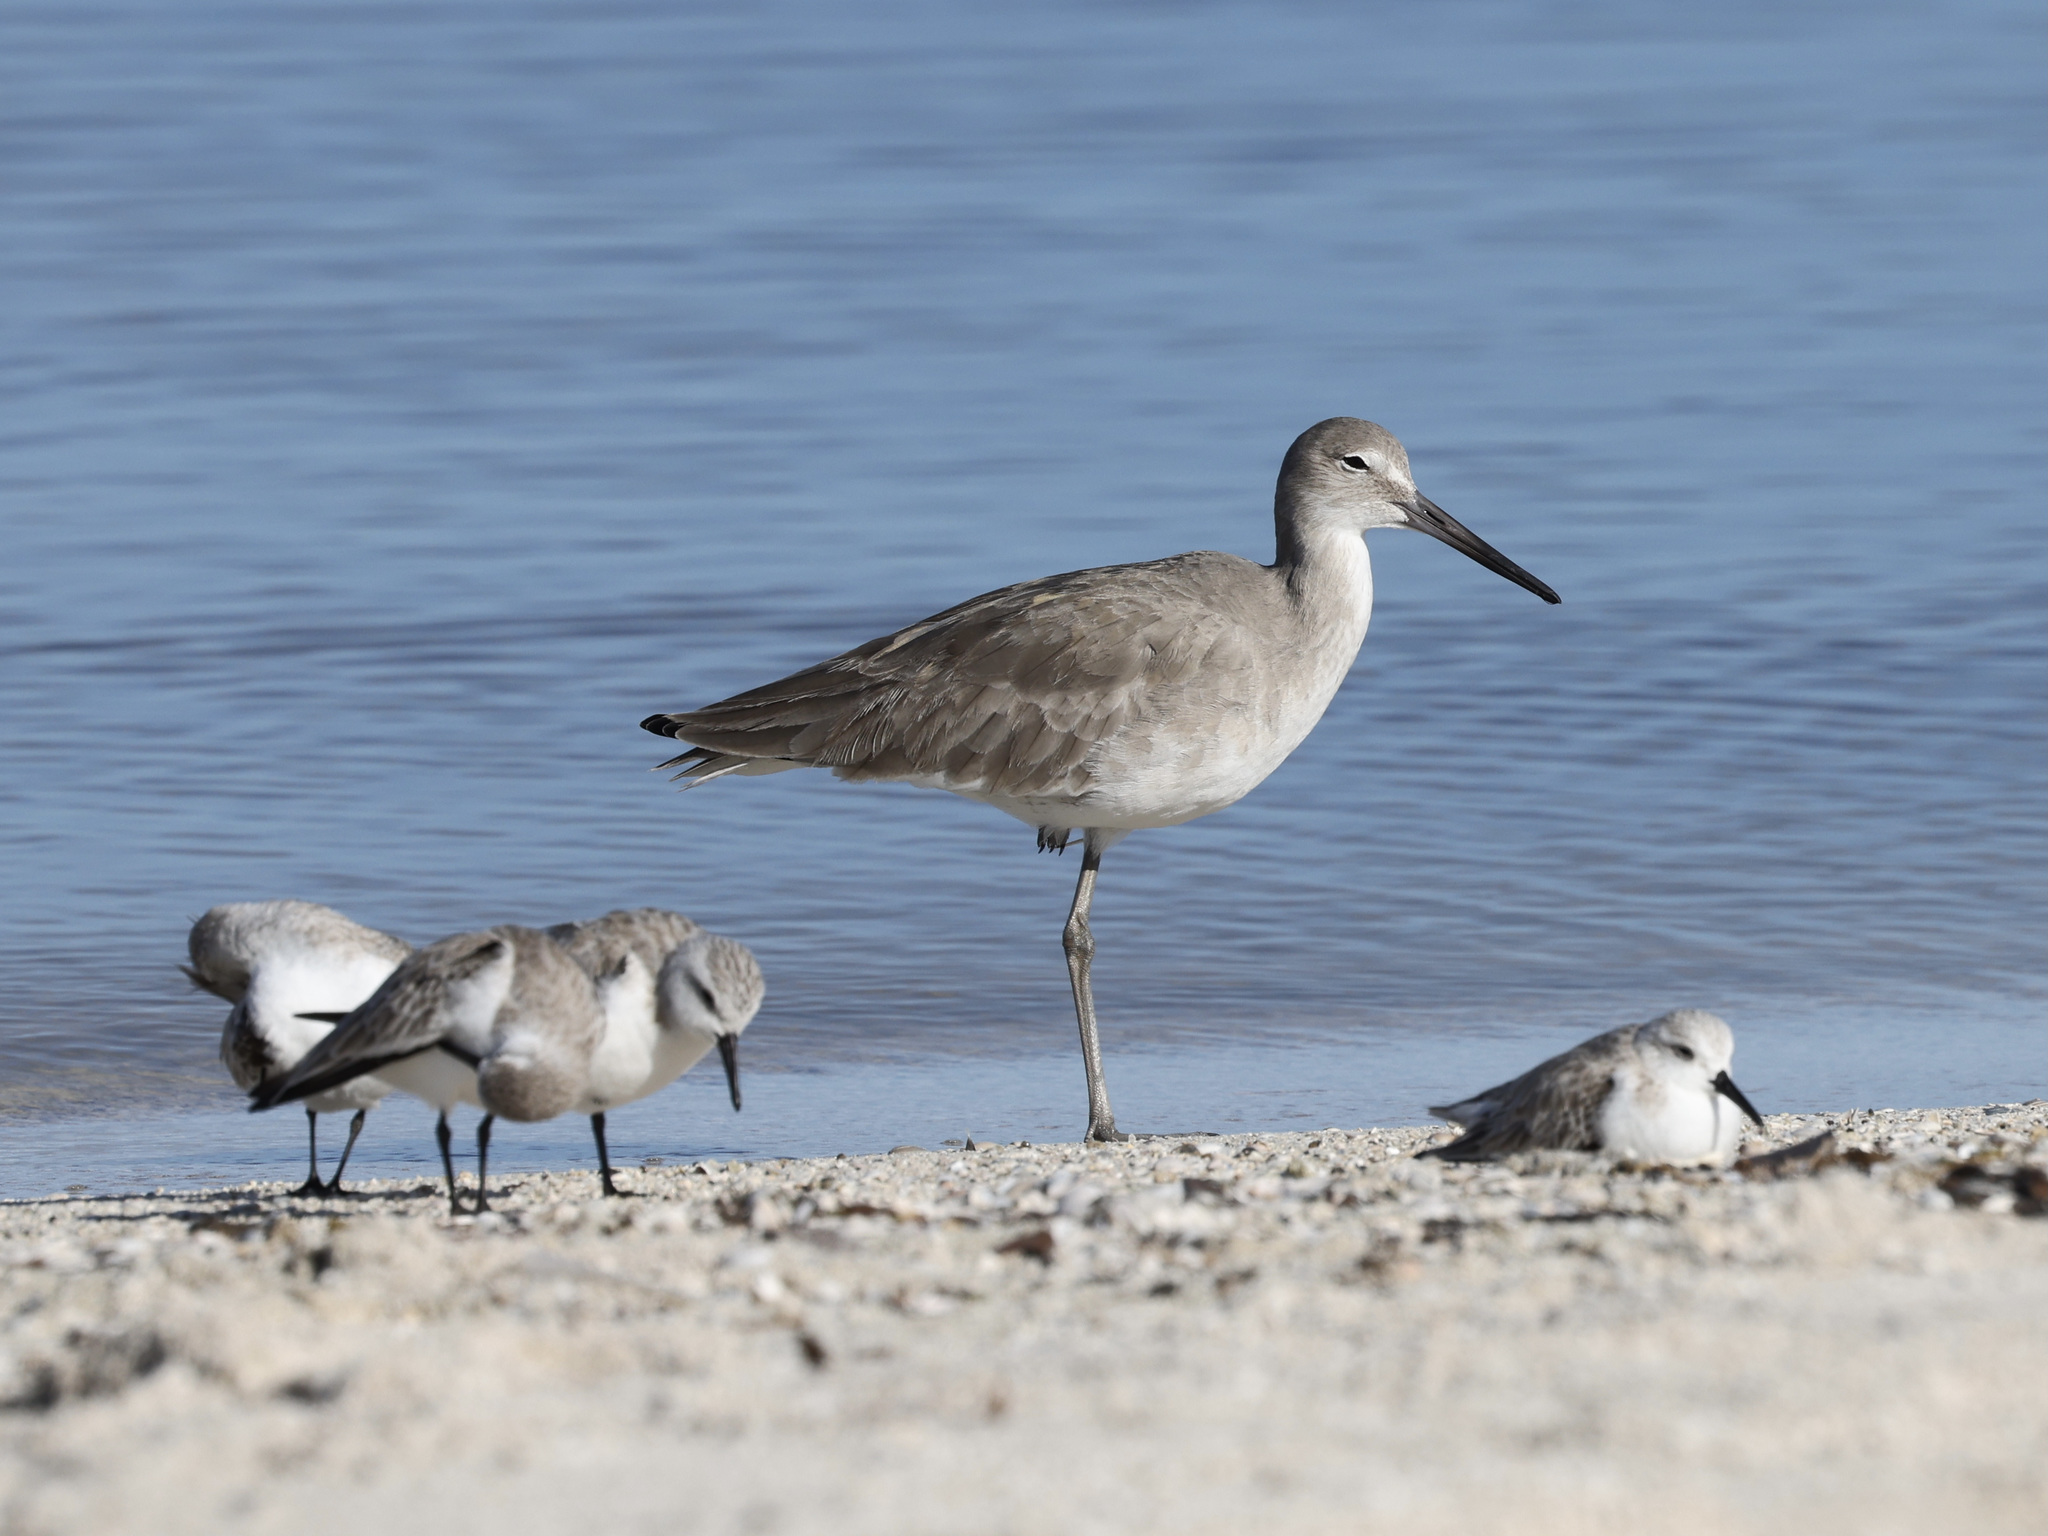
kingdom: Animalia
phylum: Chordata
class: Aves
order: Charadriiformes
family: Scolopacidae
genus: Tringa
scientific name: Tringa semipalmata
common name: Willet
